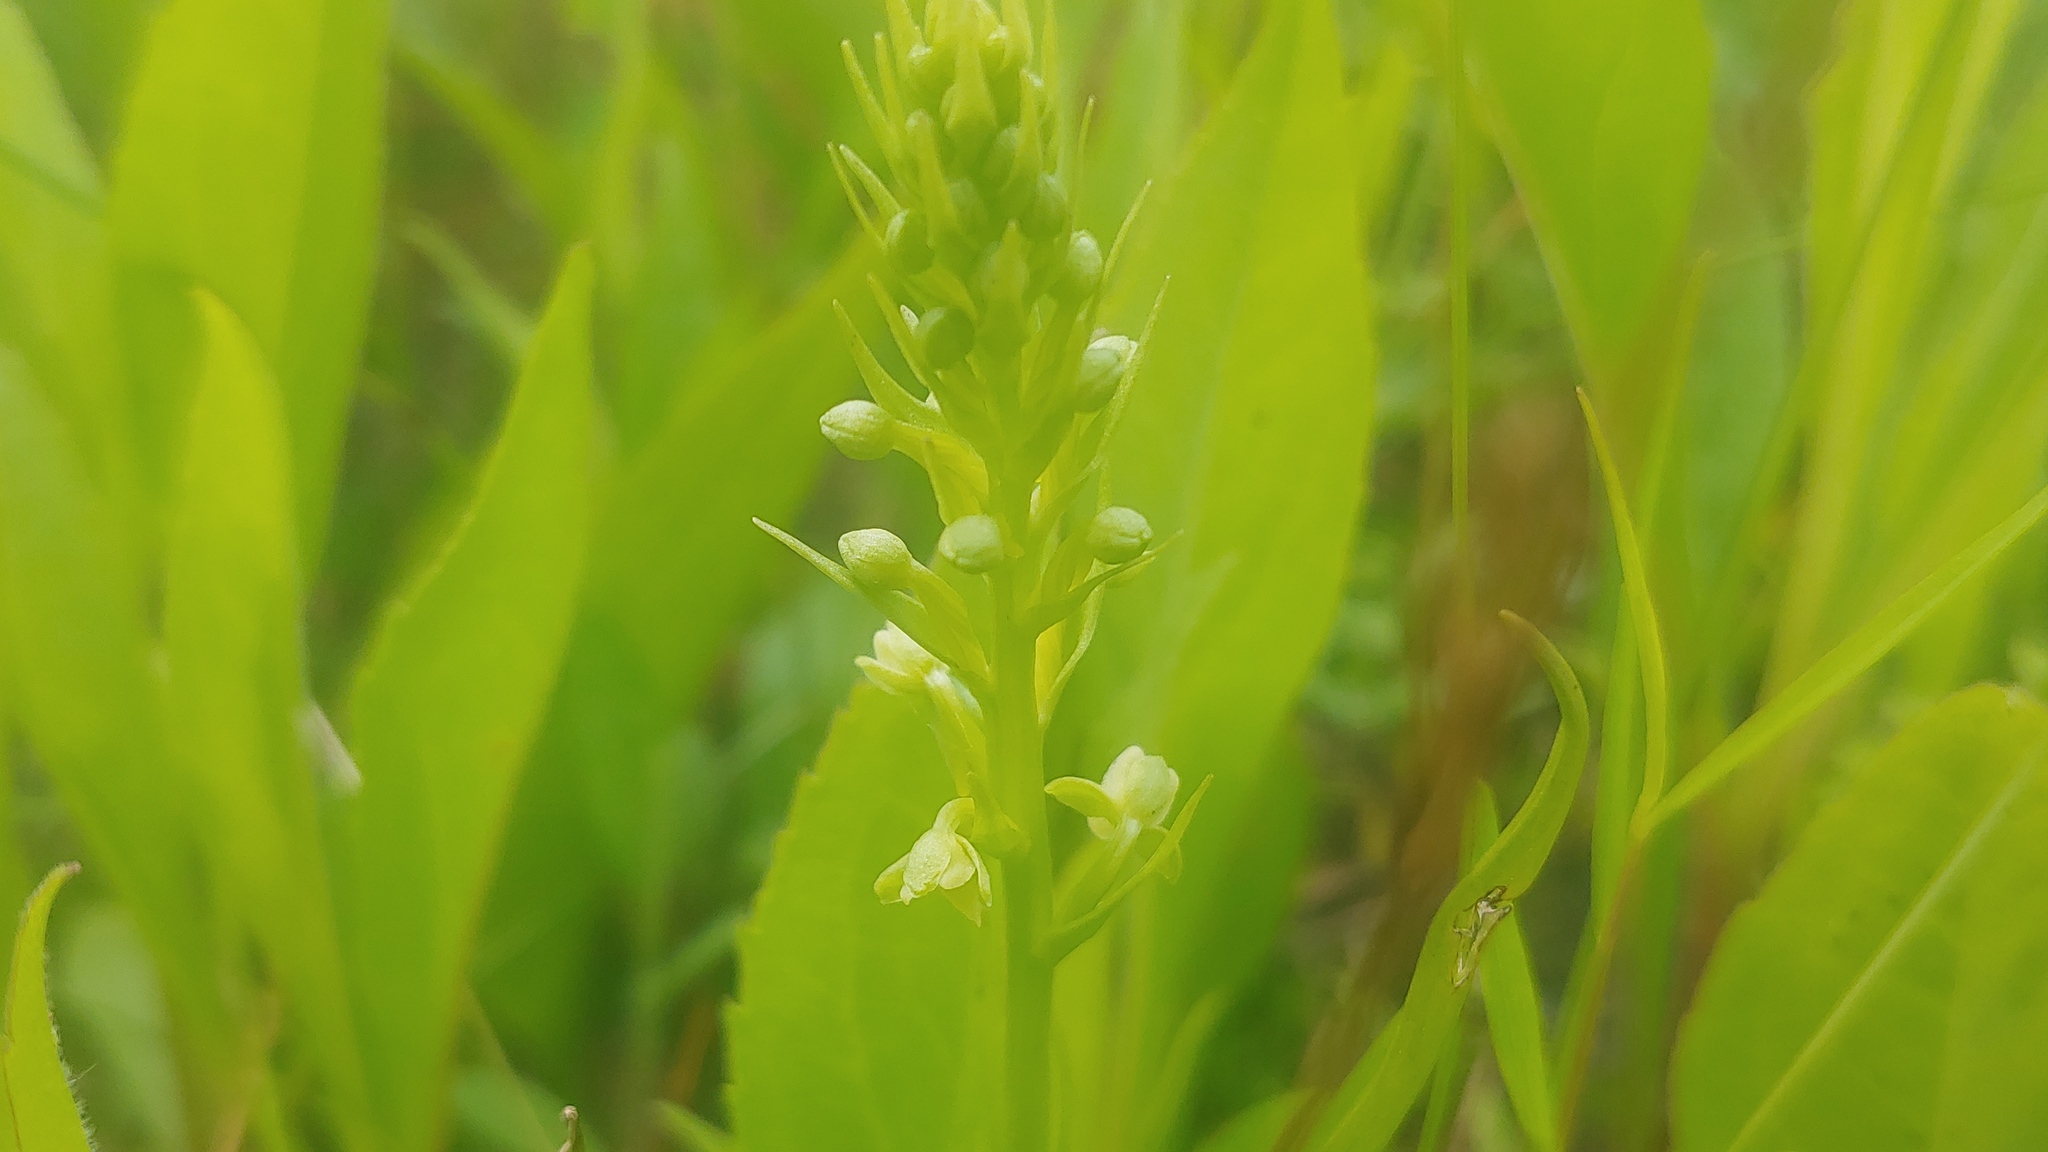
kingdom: Plantae
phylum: Tracheophyta
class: Liliopsida
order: Asparagales
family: Orchidaceae
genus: Platanthera
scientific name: Platanthera flava
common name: Gypsy-spikes
